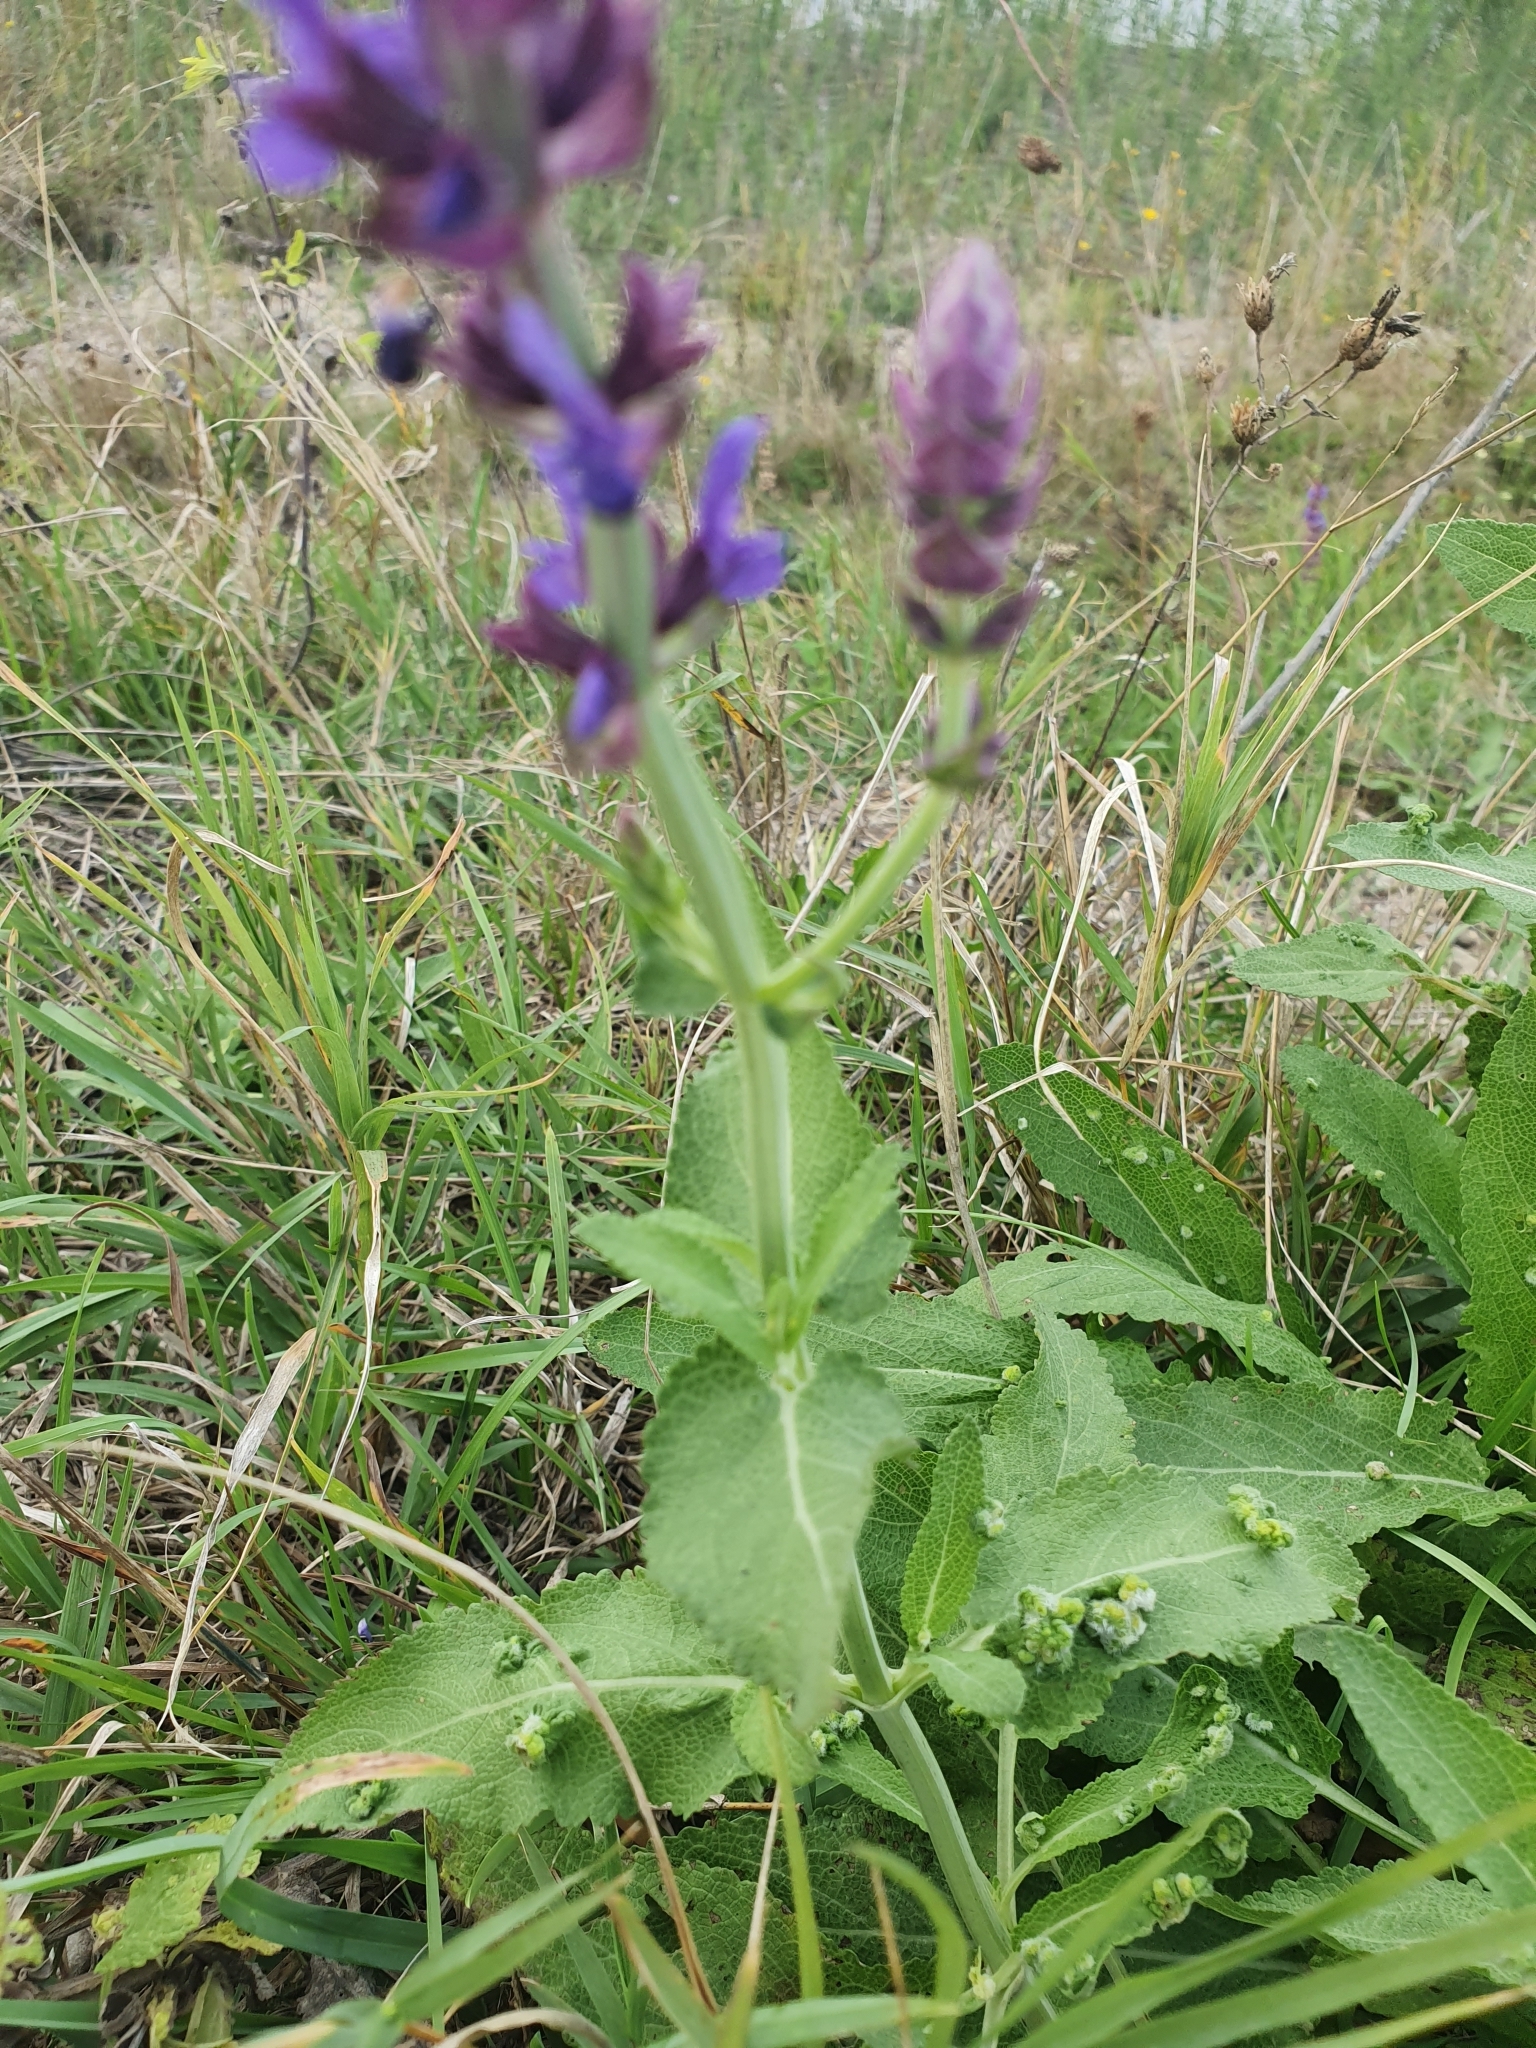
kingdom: Plantae
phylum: Tracheophyta
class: Magnoliopsida
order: Lamiales
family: Lamiaceae
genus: Salvia
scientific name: Salvia nemorosa
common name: Balkan clary
